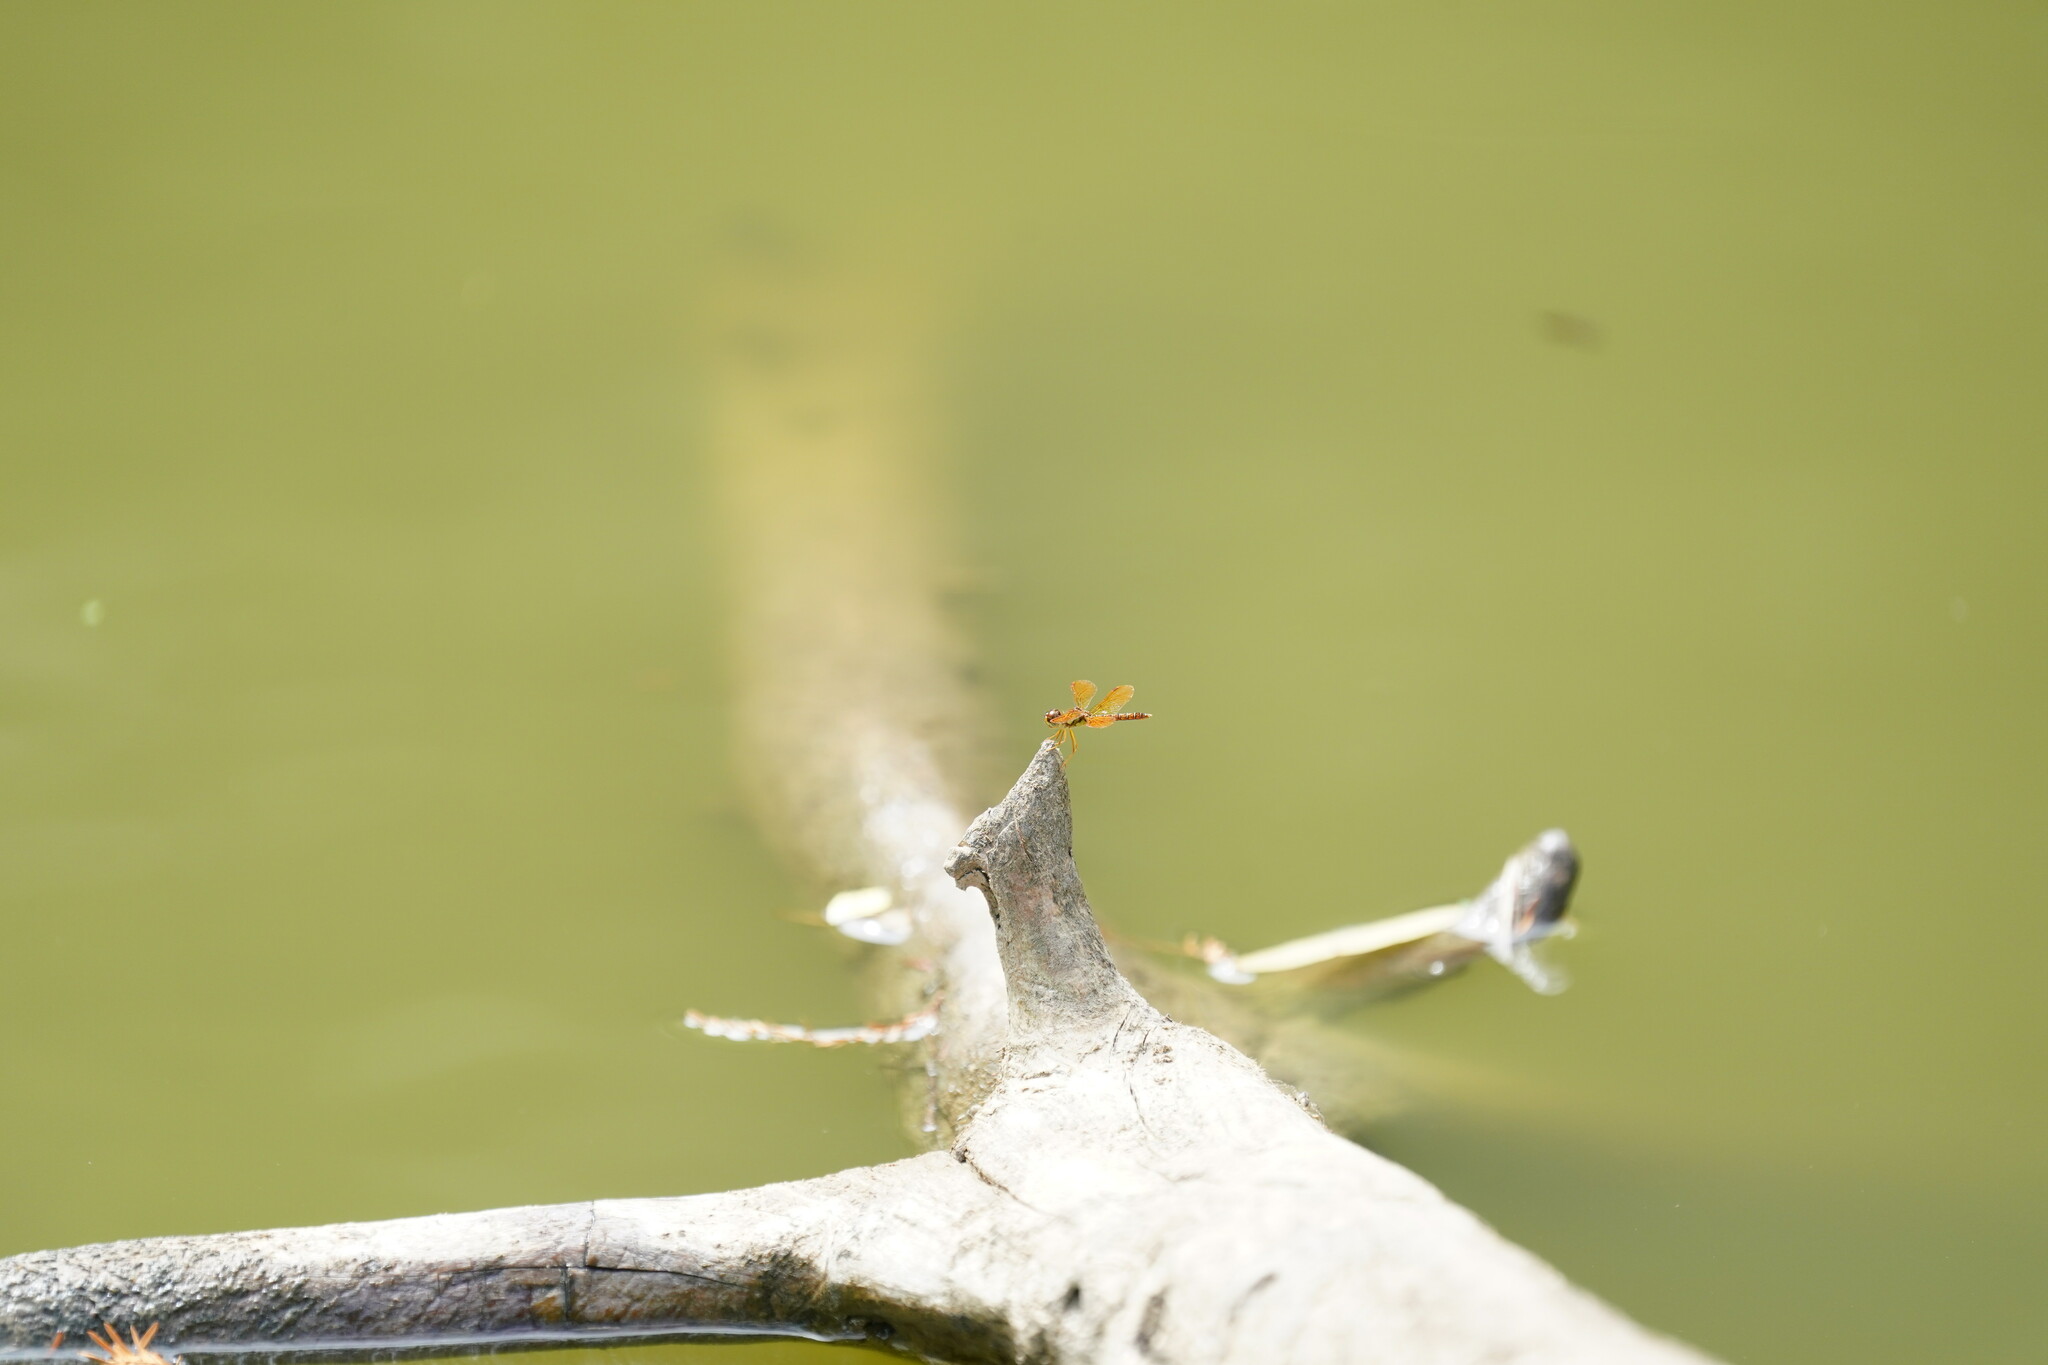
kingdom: Animalia
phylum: Arthropoda
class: Insecta
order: Odonata
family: Libellulidae
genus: Perithemis
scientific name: Perithemis tenera
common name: Eastern amberwing
